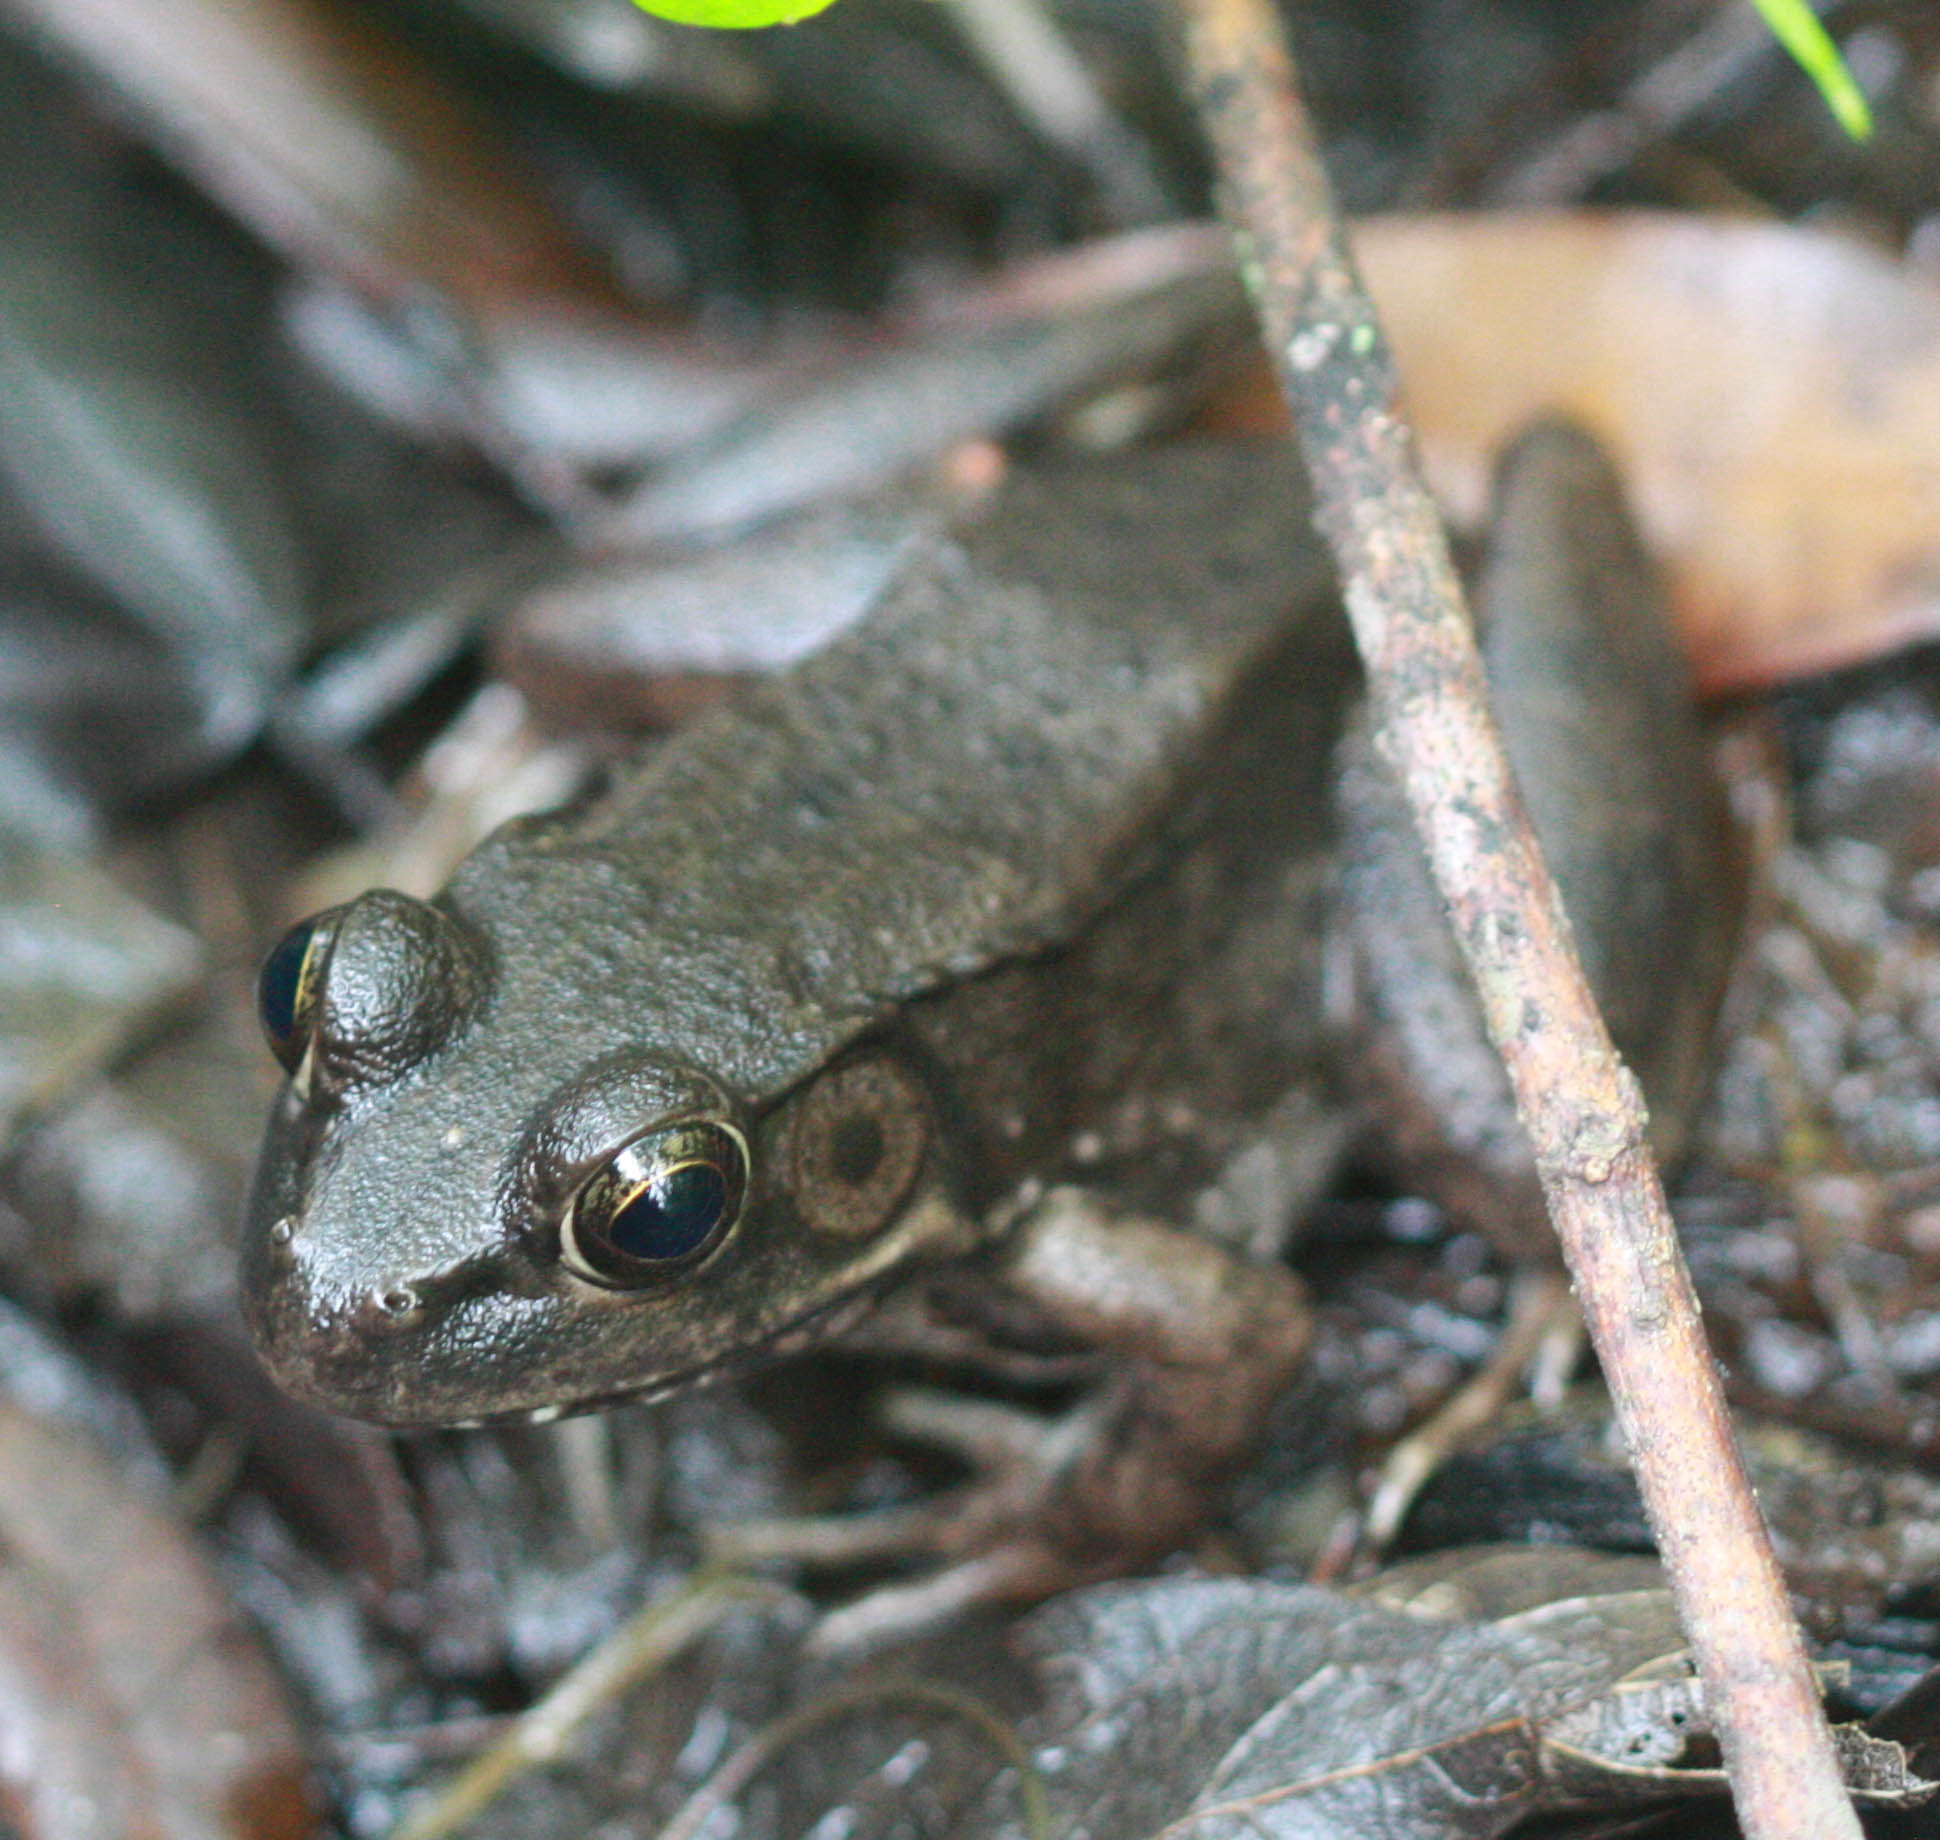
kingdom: Animalia
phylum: Chordata
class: Amphibia
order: Anura
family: Ranidae
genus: Lithobates
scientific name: Lithobates clamitans
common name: Green frog
